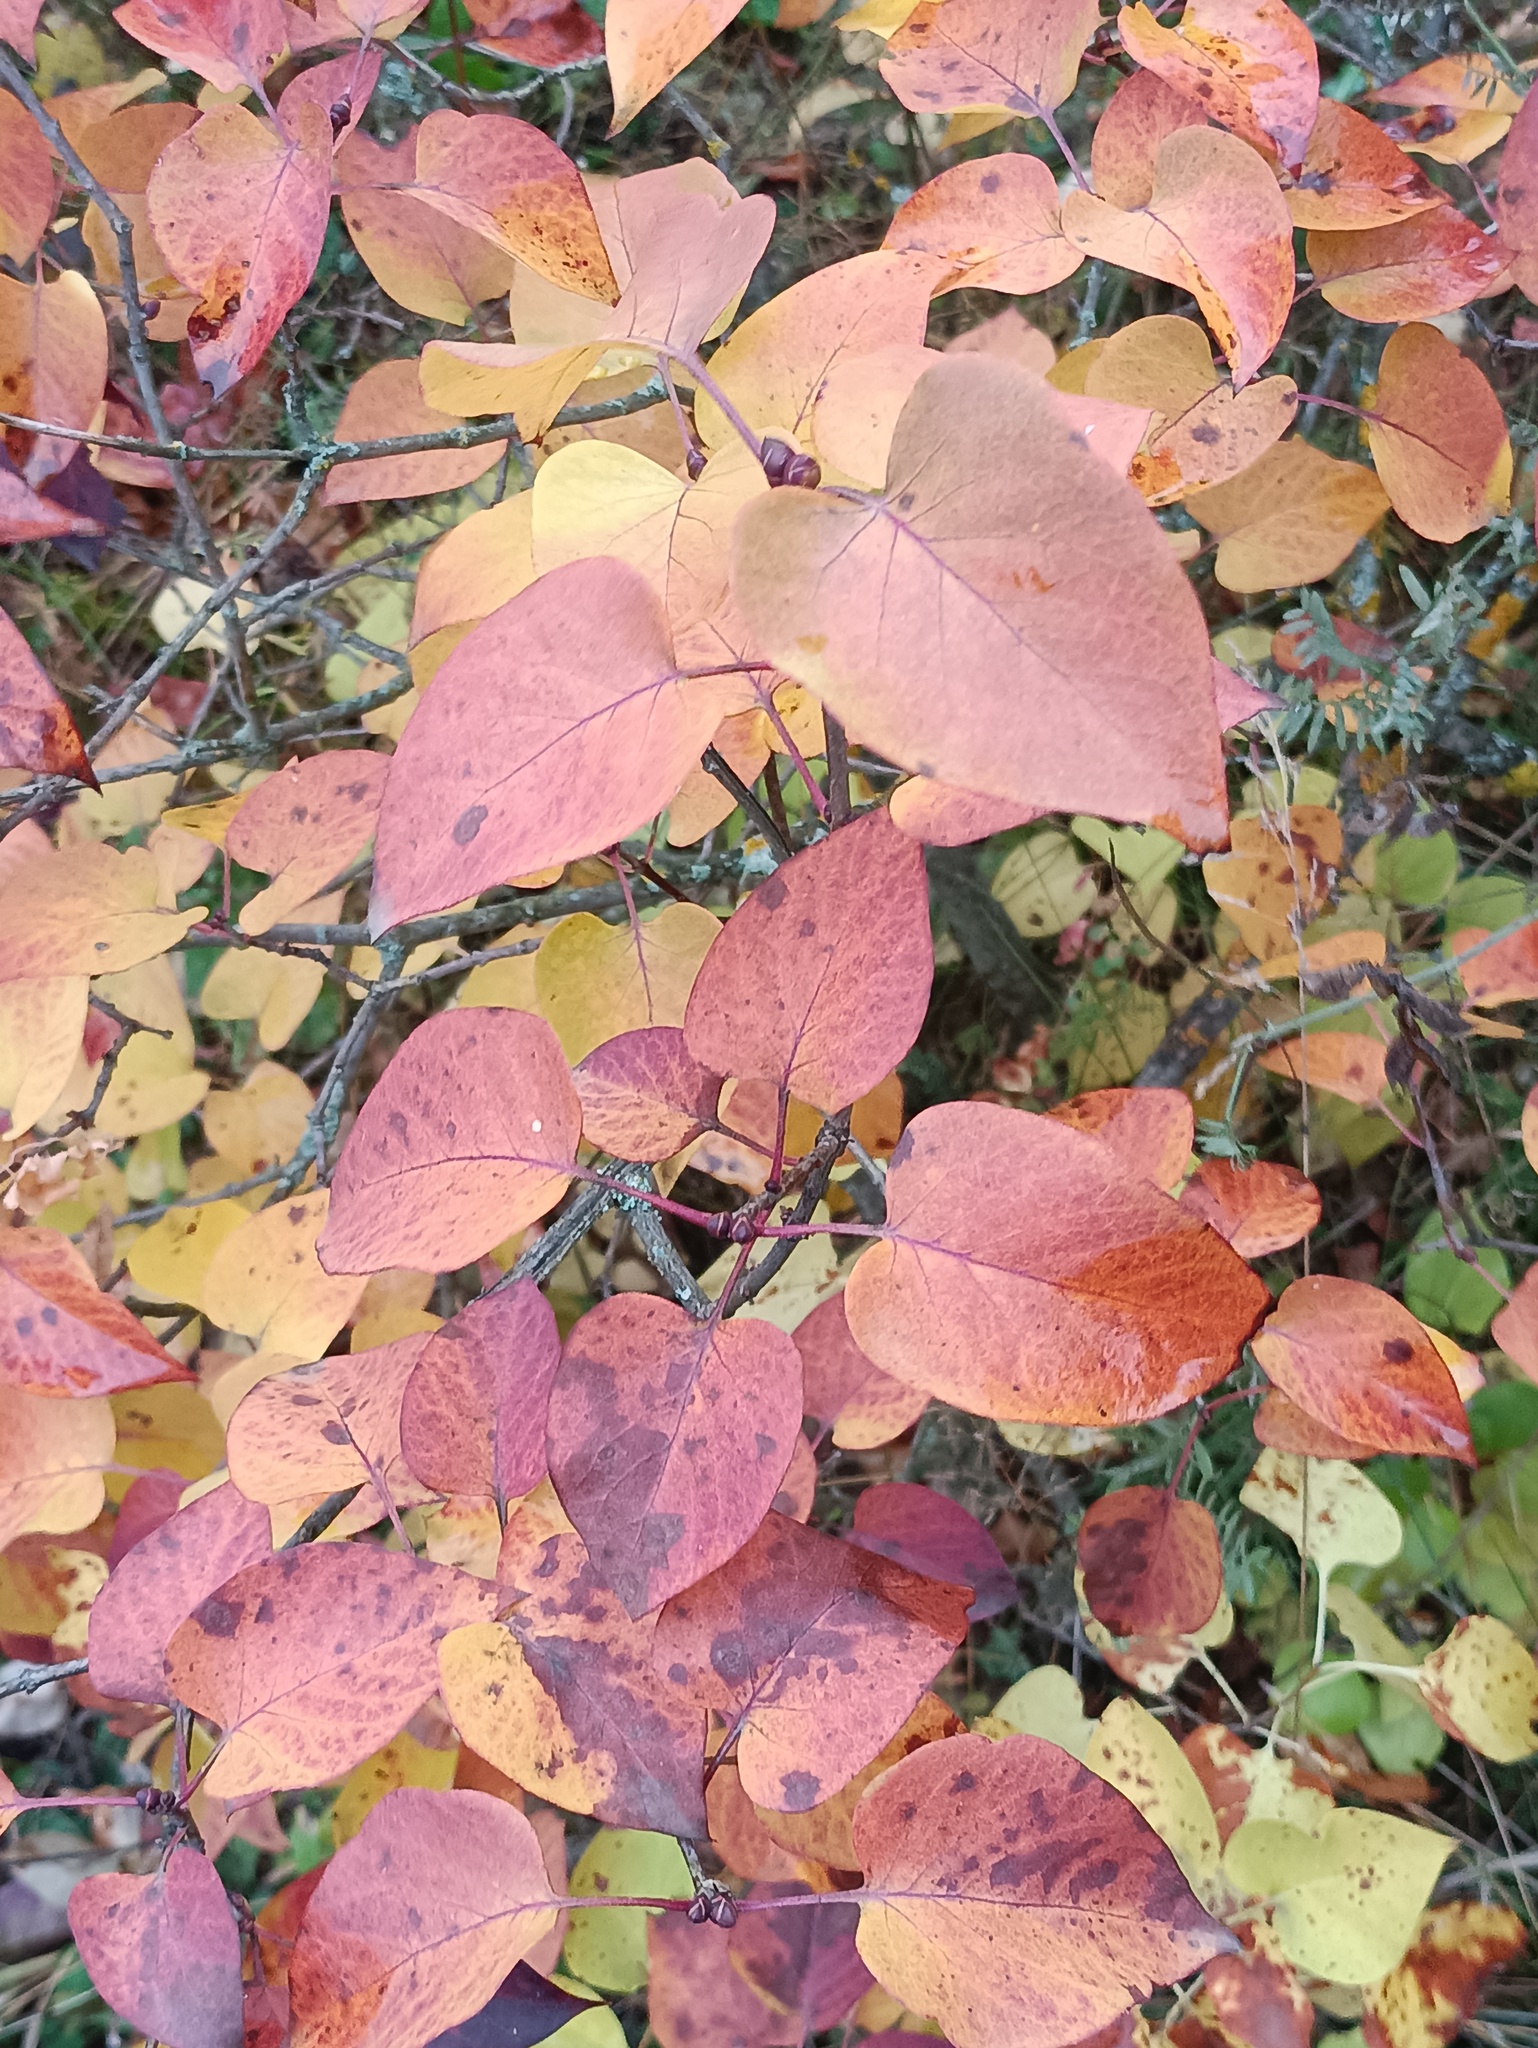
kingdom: Plantae
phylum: Tracheophyta
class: Magnoliopsida
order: Lamiales
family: Oleaceae
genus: Syringa
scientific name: Syringa vulgaris
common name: Common lilac
